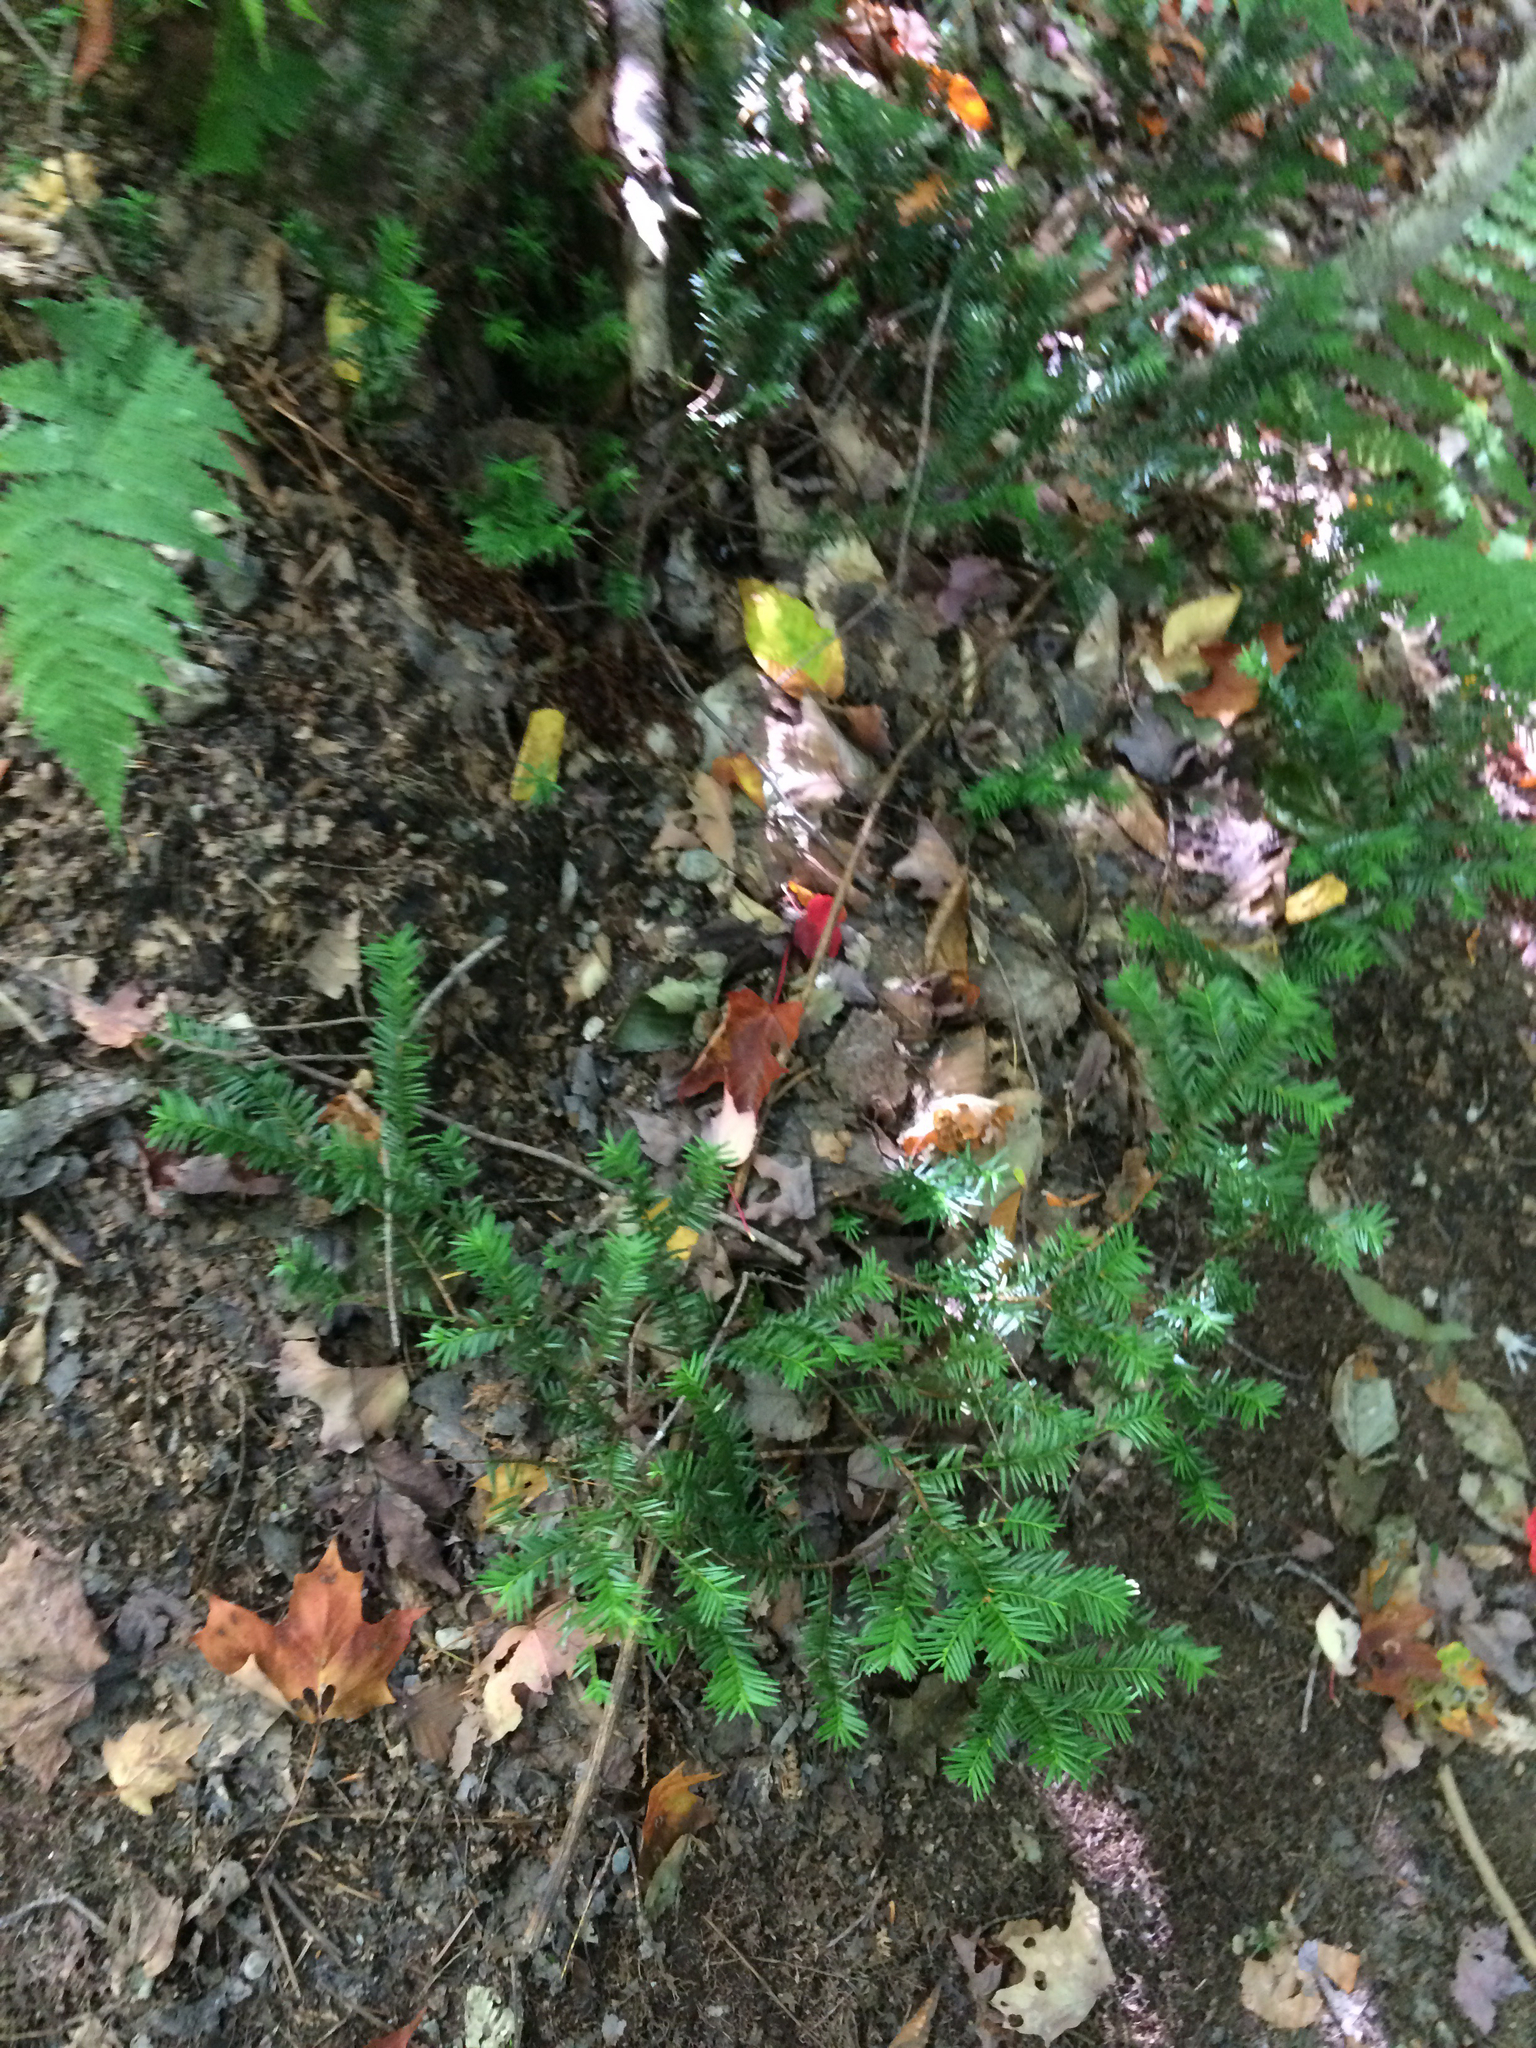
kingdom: Plantae
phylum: Tracheophyta
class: Pinopsida
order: Pinales
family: Taxaceae
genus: Taxus
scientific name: Taxus canadensis
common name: American yew
